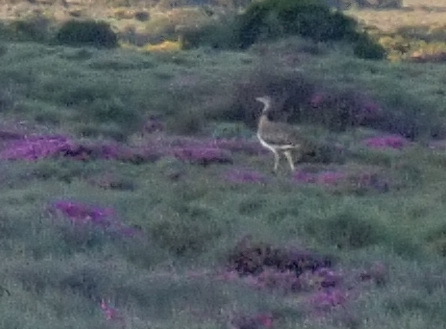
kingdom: Animalia
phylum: Chordata
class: Aves
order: Otidiformes
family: Otididae
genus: Ardeotis
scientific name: Ardeotis kori
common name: Kori bustard
